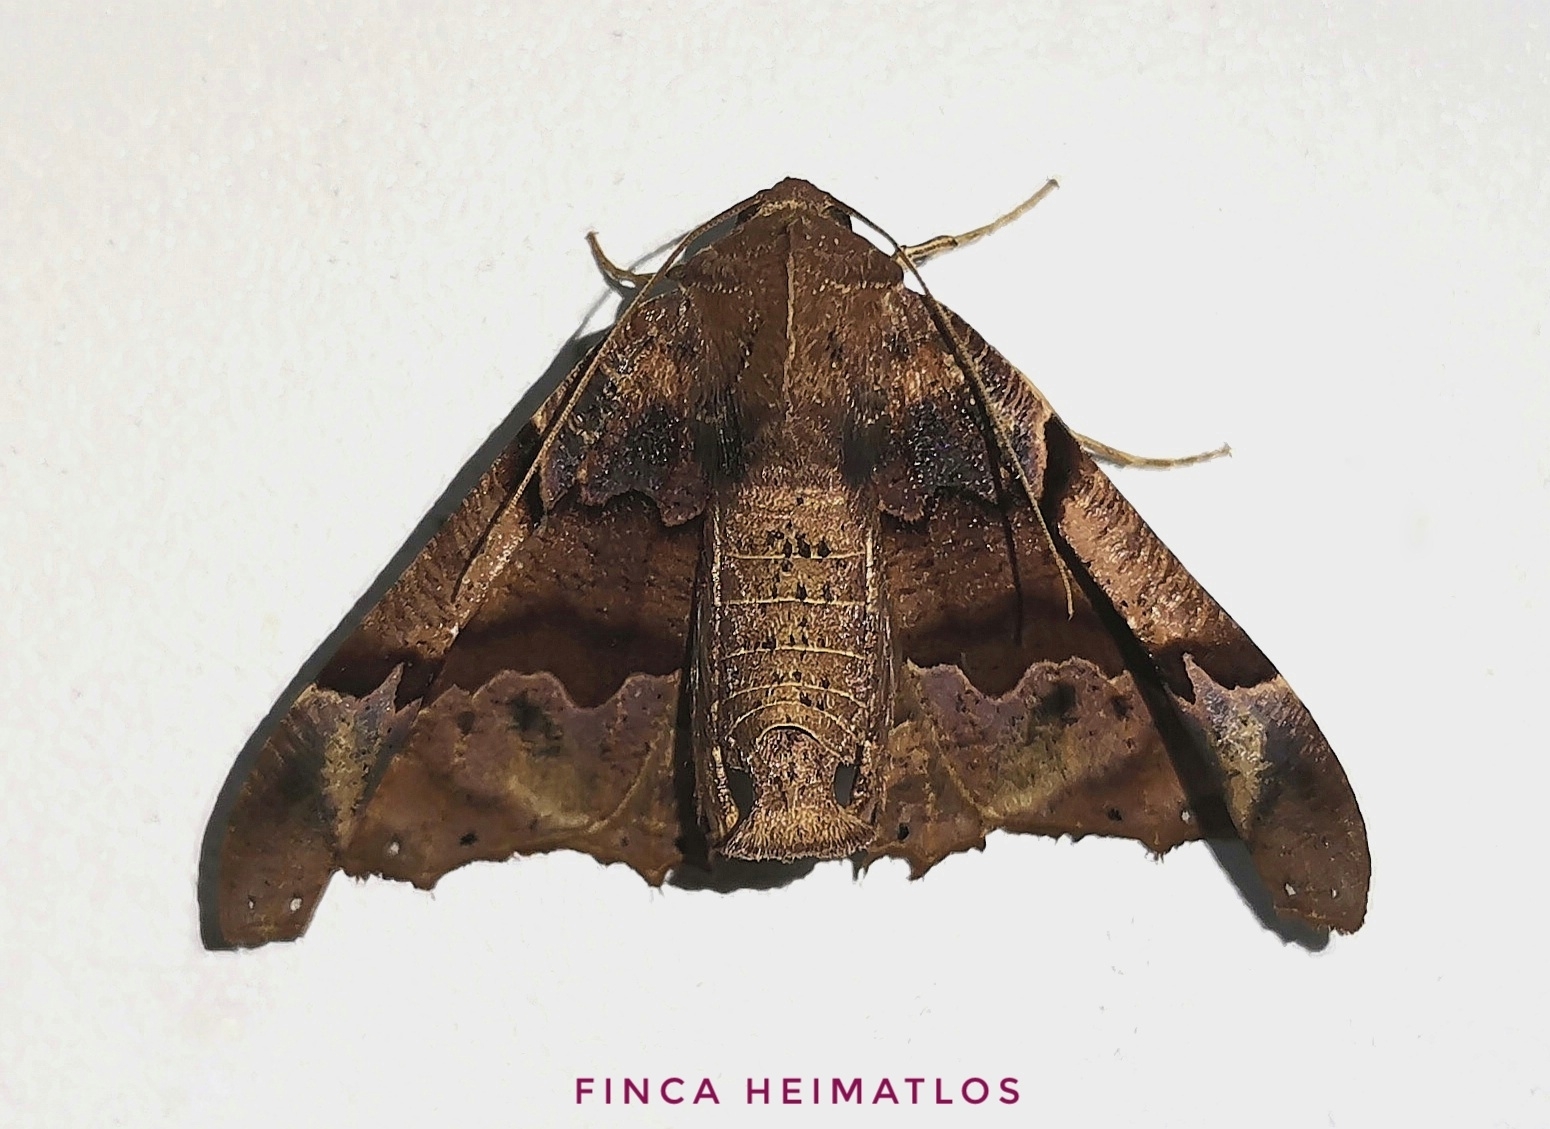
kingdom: Animalia
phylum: Arthropoda
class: Insecta
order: Lepidoptera
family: Geometridae
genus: Pero
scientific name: Pero dularia
